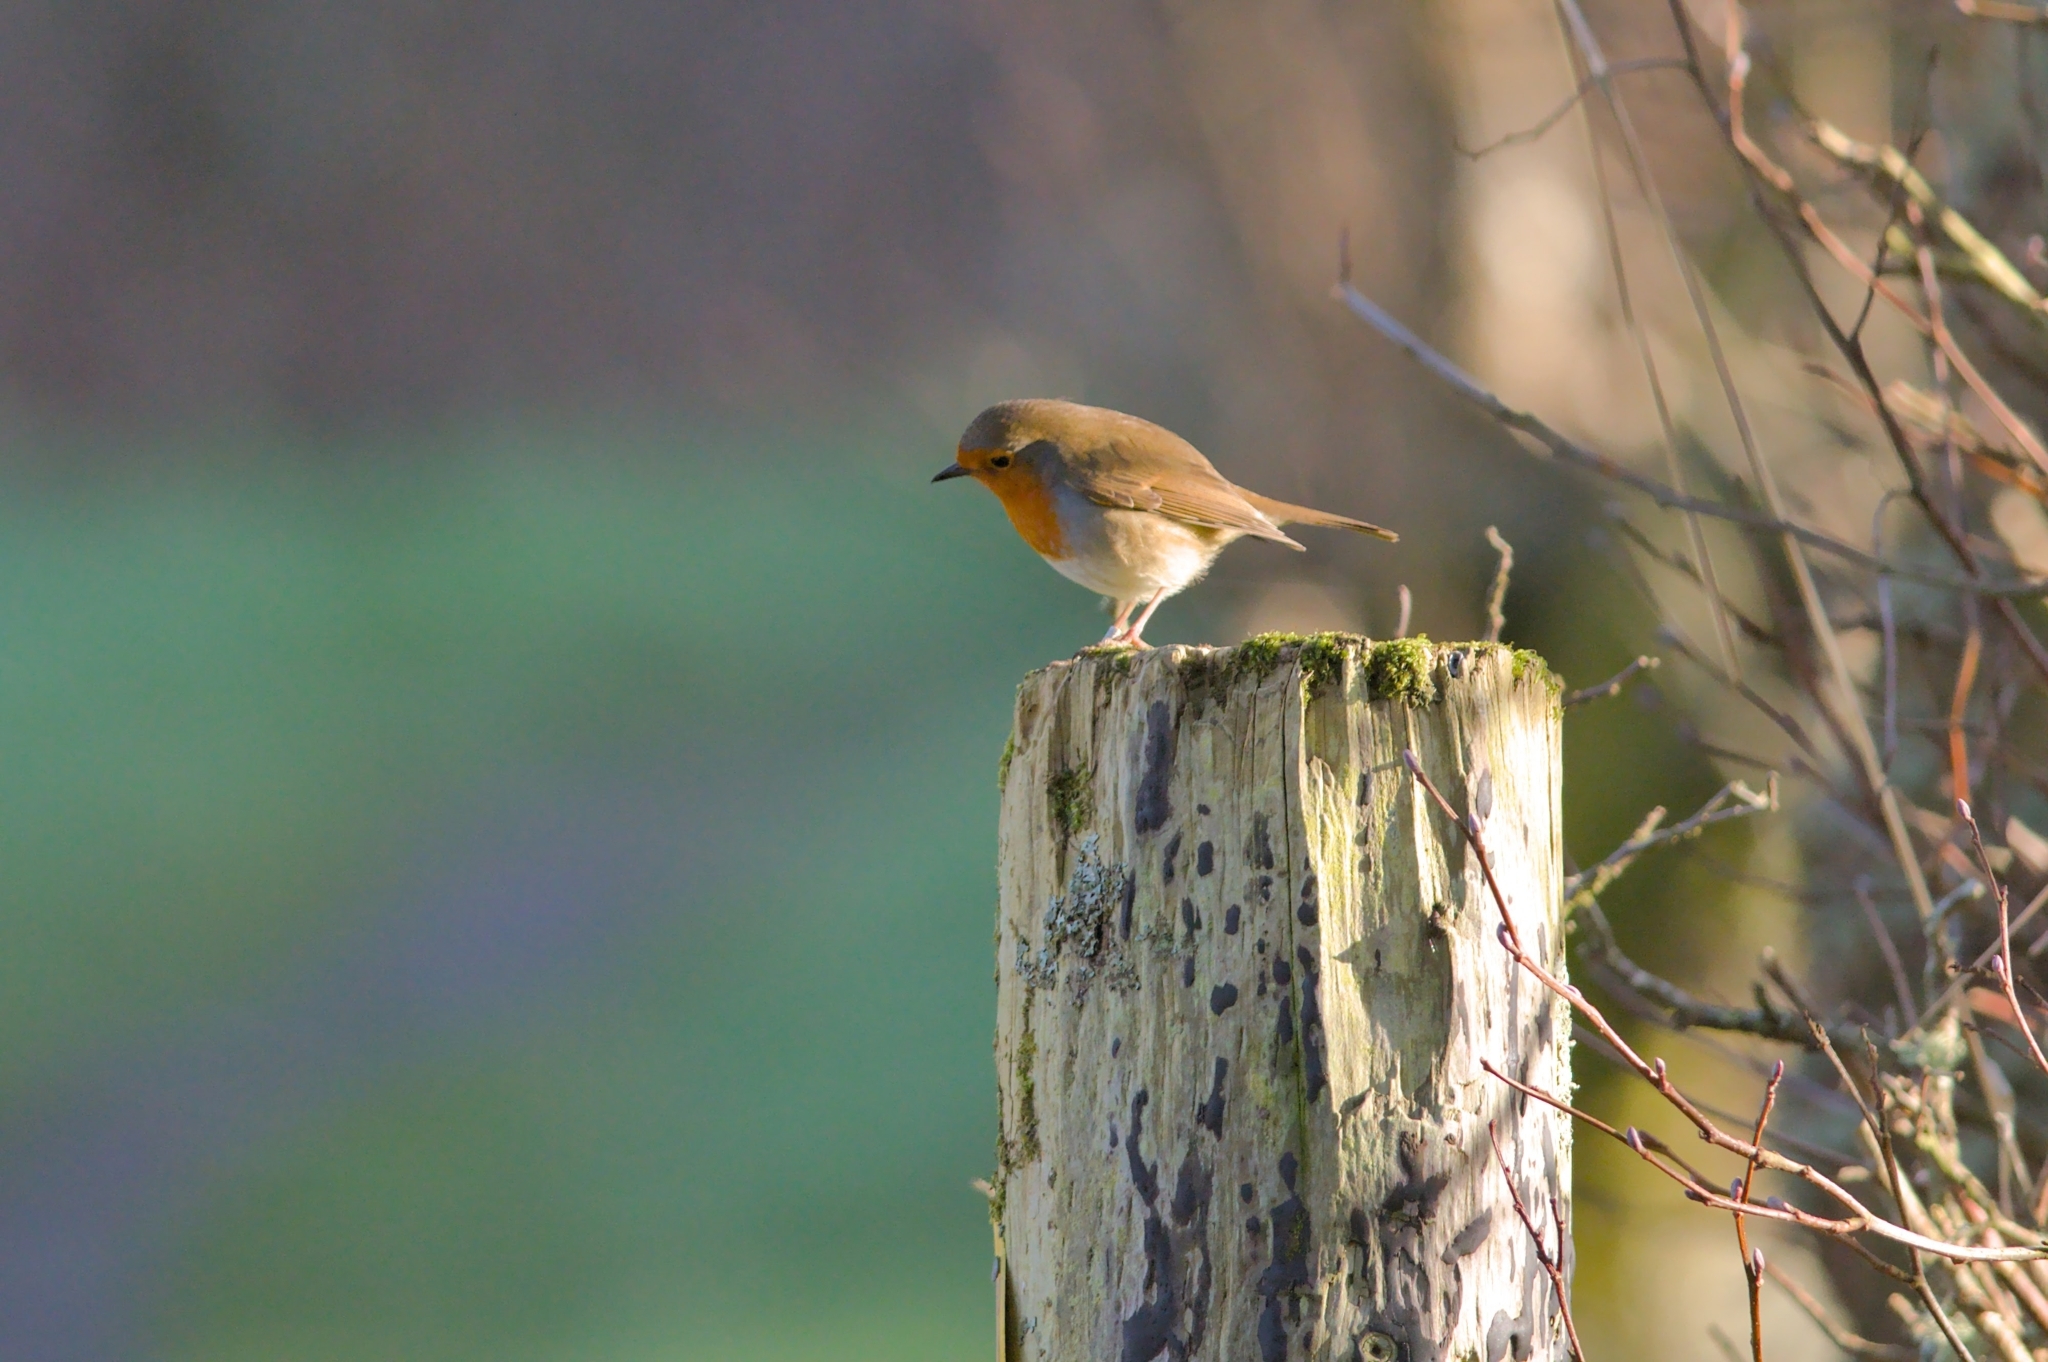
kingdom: Animalia
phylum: Chordata
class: Aves
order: Passeriformes
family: Muscicapidae
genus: Erithacus
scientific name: Erithacus rubecula
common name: European robin
